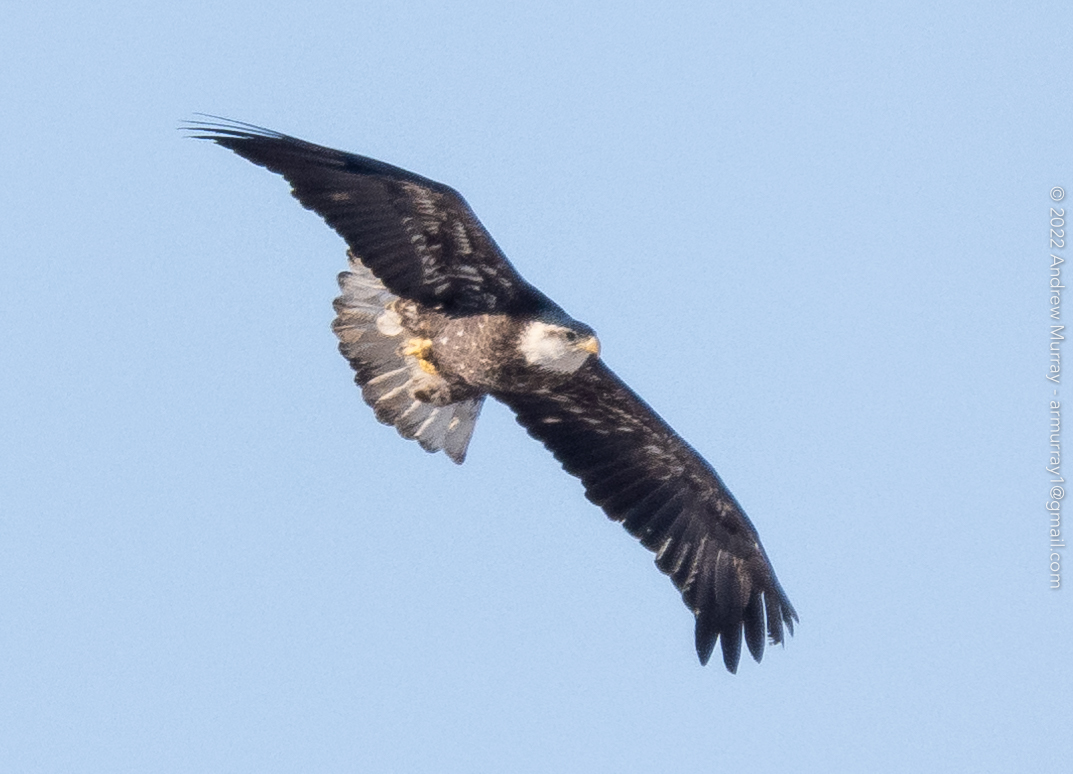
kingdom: Animalia
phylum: Chordata
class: Aves
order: Accipitriformes
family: Accipitridae
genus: Haliaeetus
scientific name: Haliaeetus leucocephalus
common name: Bald eagle
